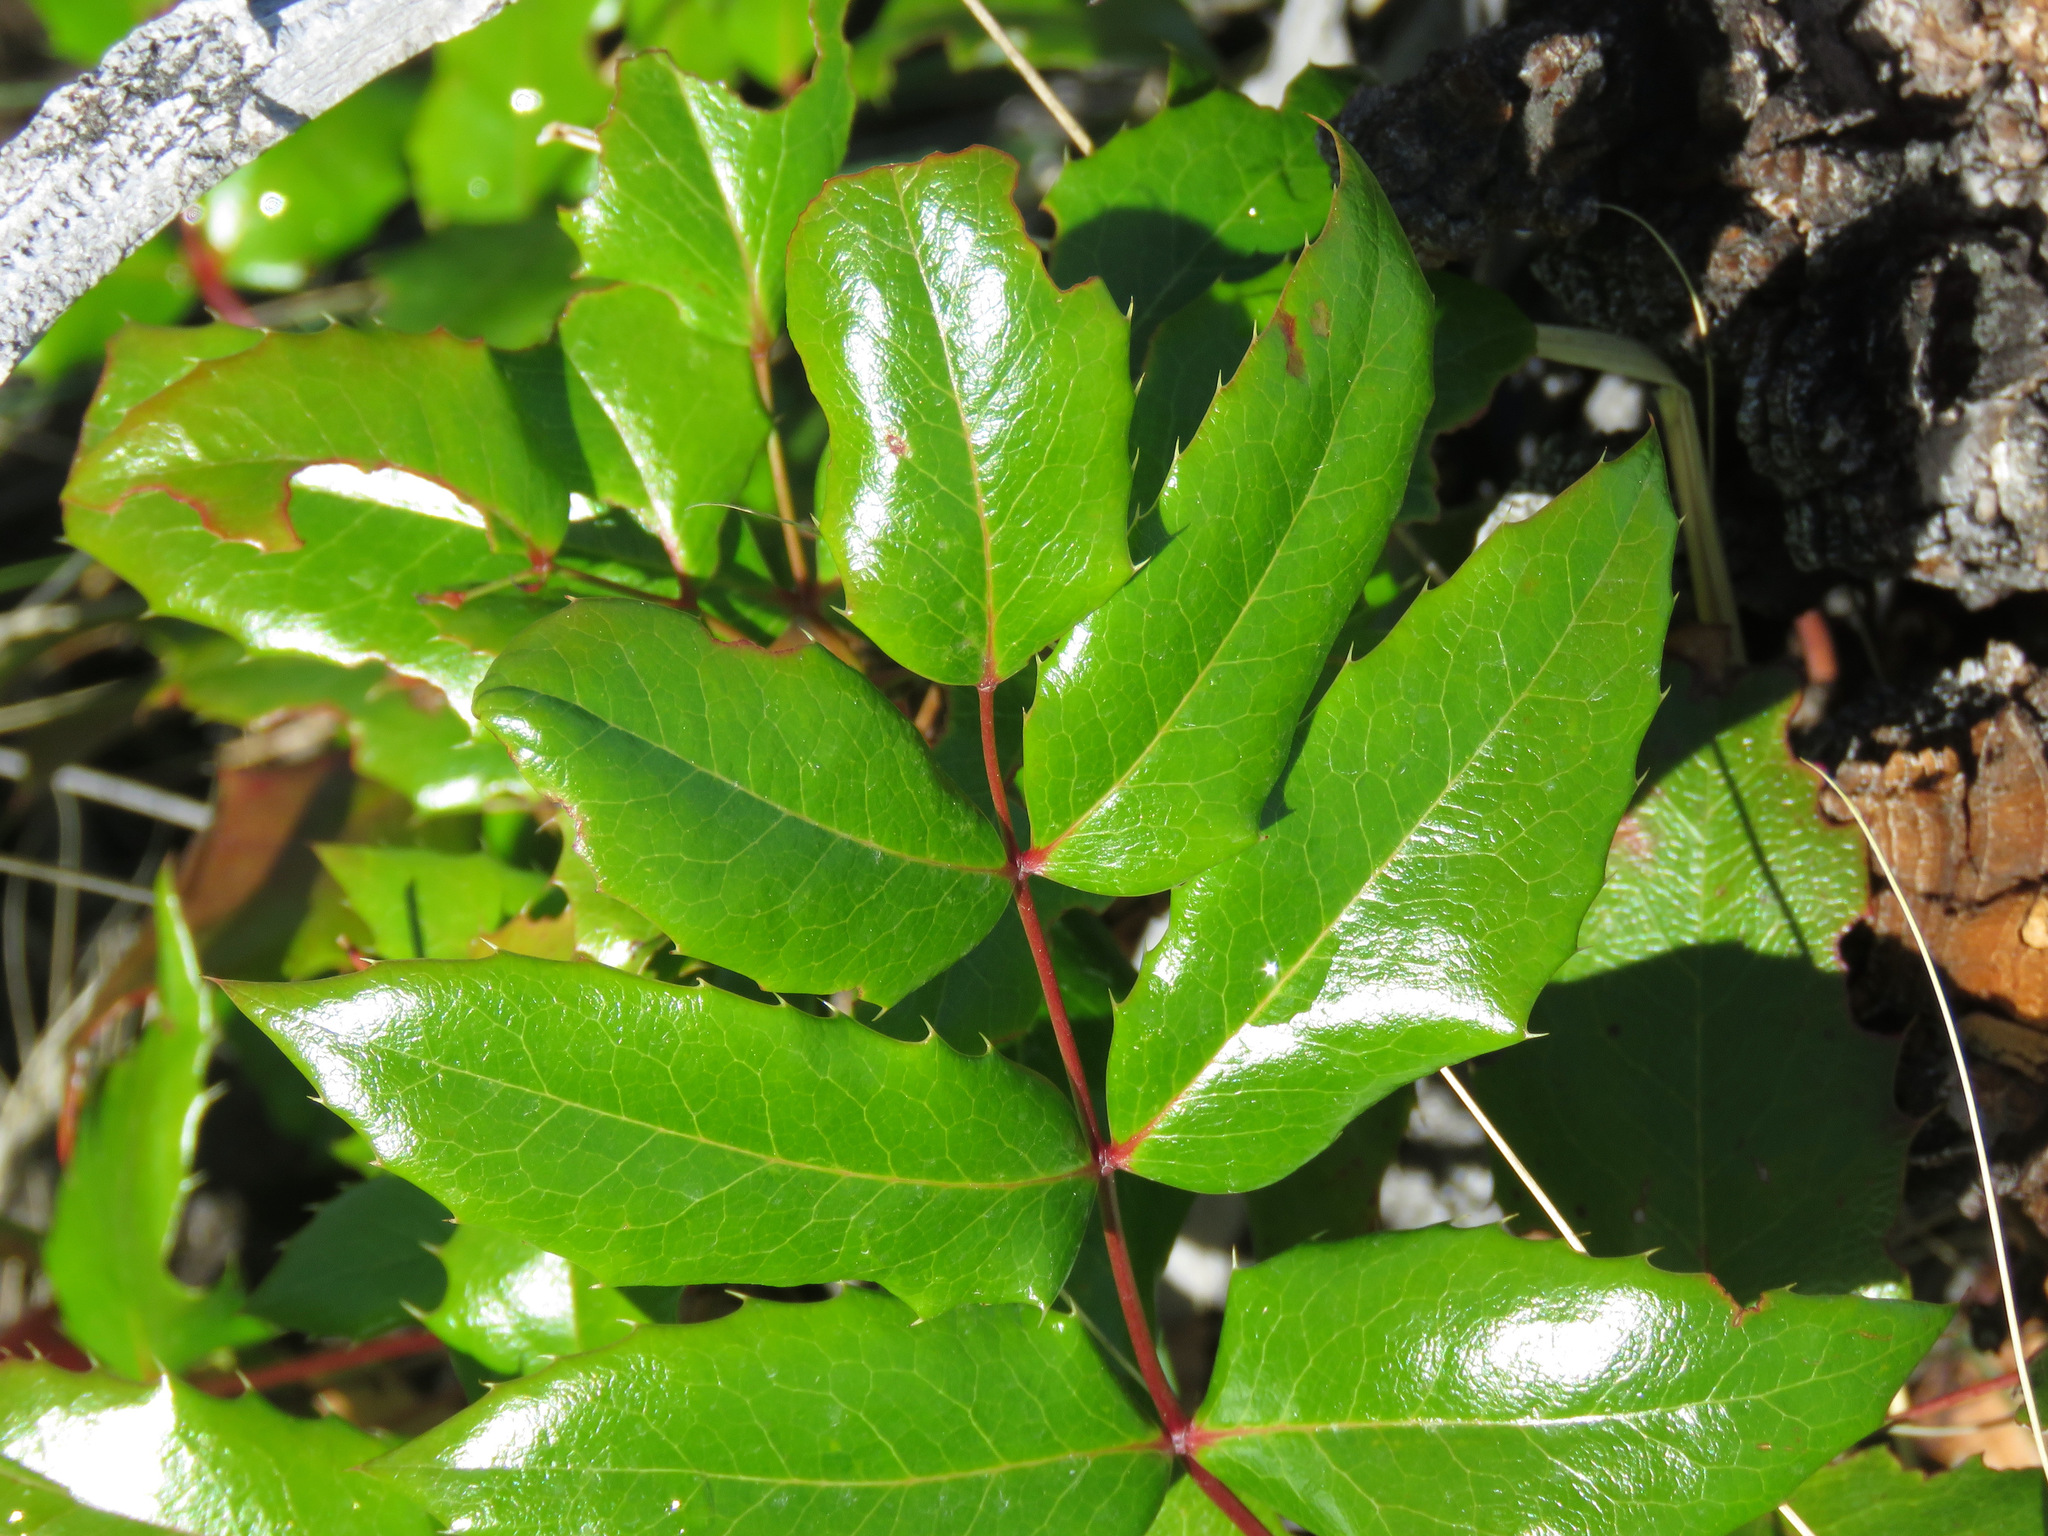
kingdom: Plantae
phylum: Tracheophyta
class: Magnoliopsida
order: Ranunculales
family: Berberidaceae
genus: Mahonia
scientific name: Mahonia aquifolium
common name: Oregon-grape
